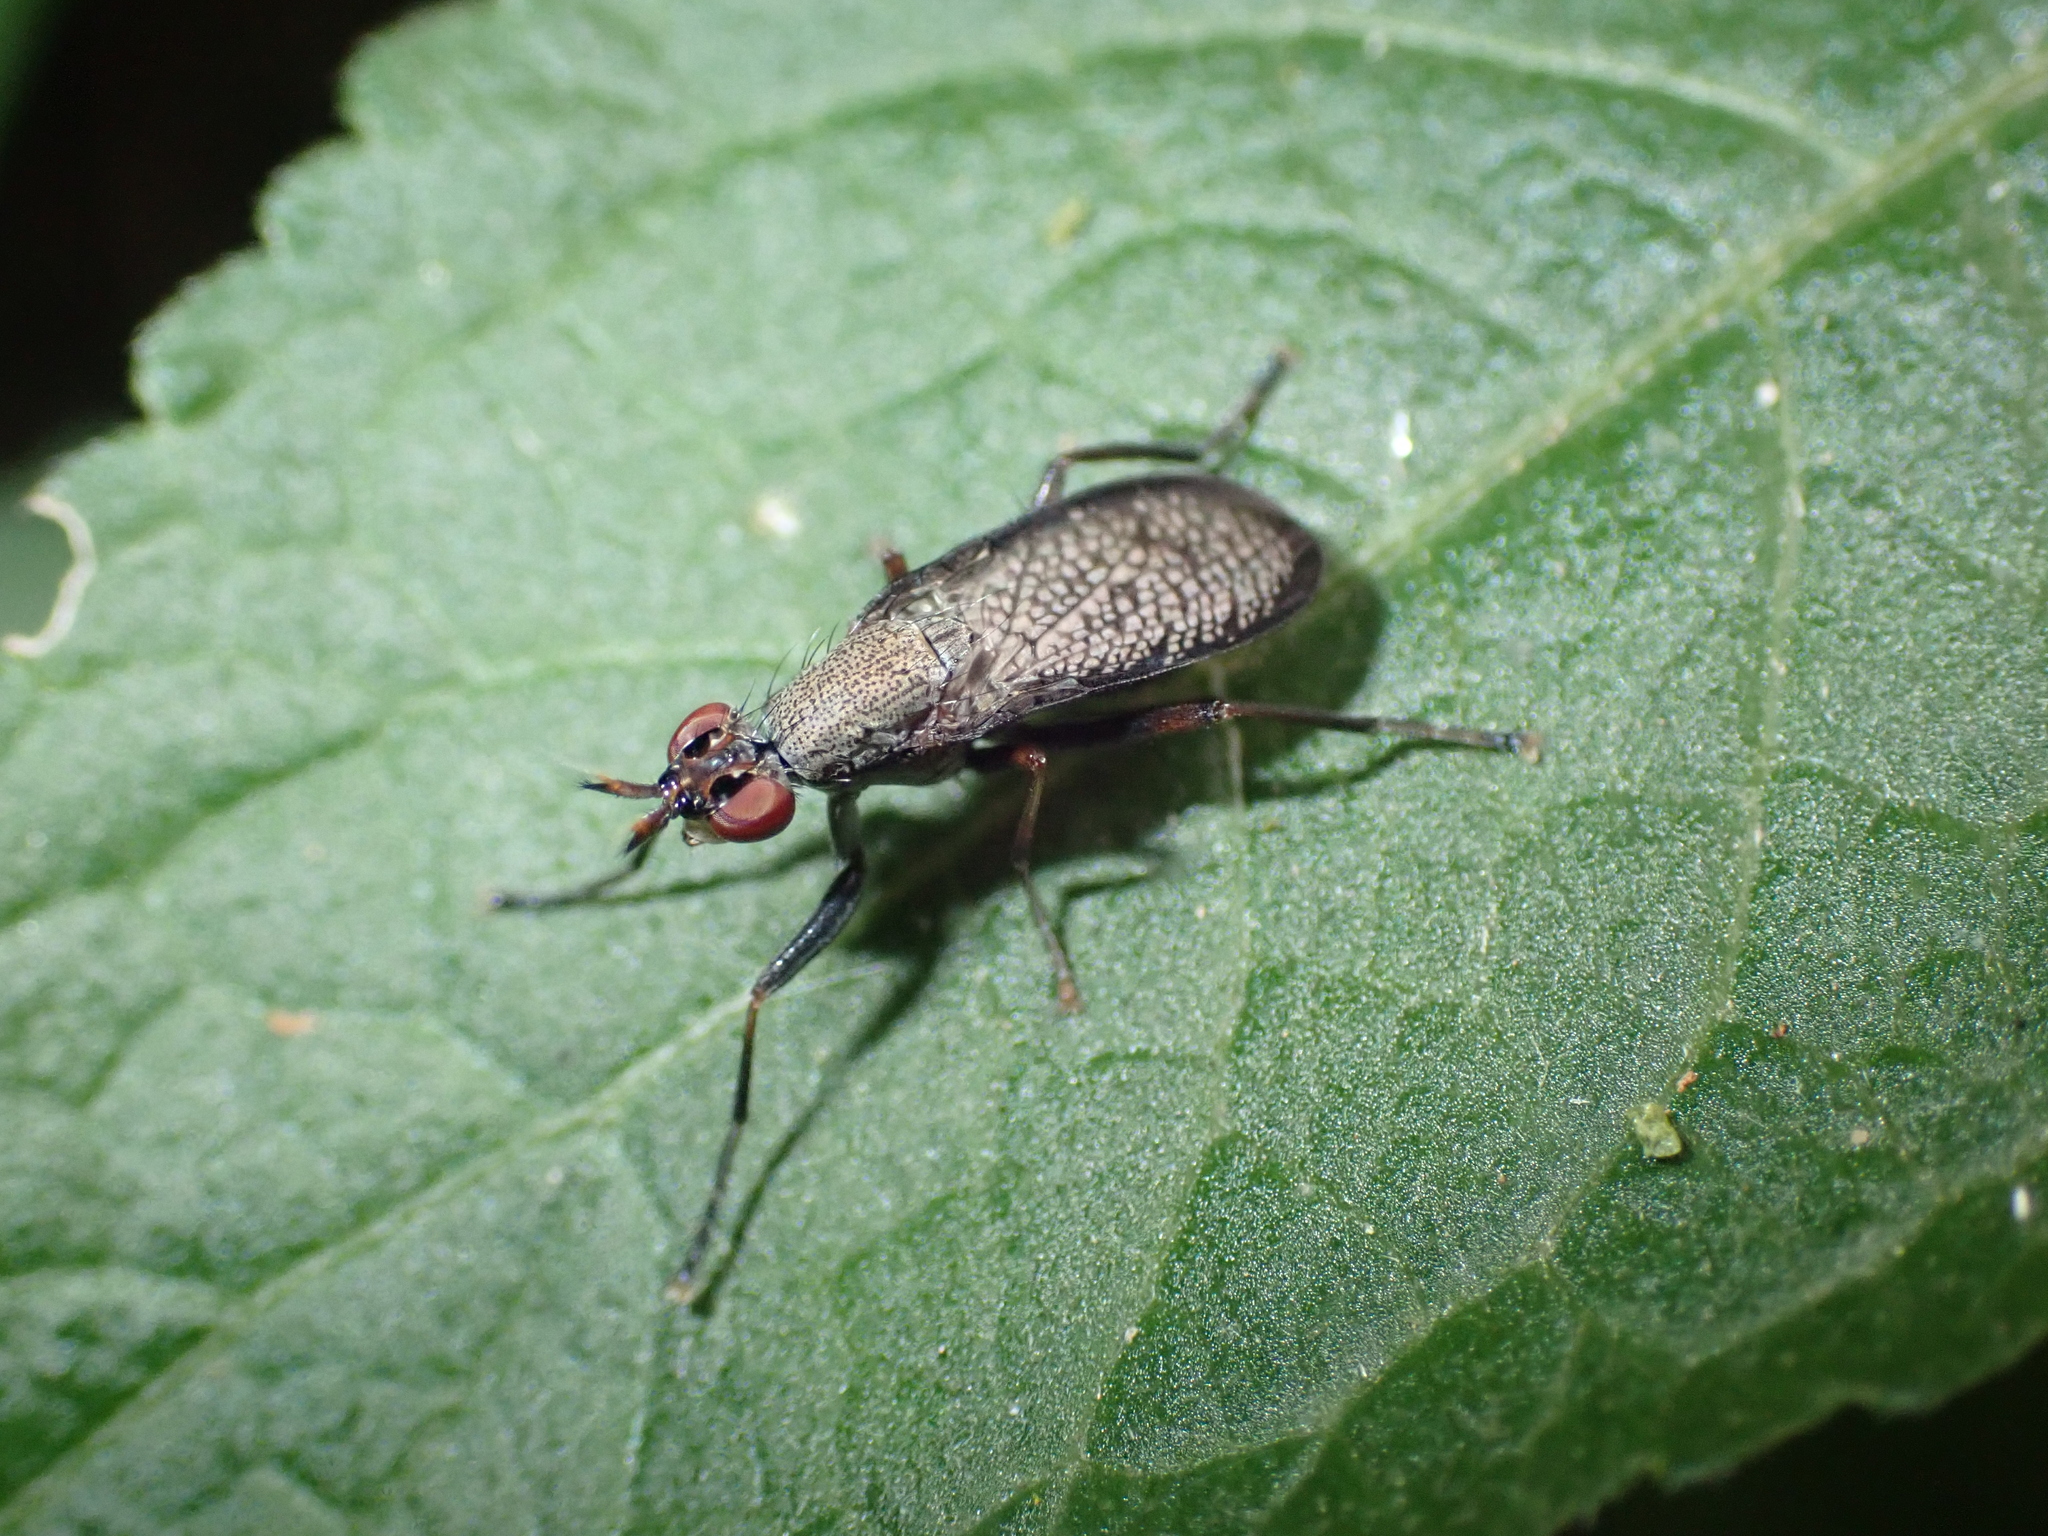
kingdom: Animalia
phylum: Arthropoda
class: Insecta
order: Diptera
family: Sciomyzidae
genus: Coremacera
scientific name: Coremacera marginata
